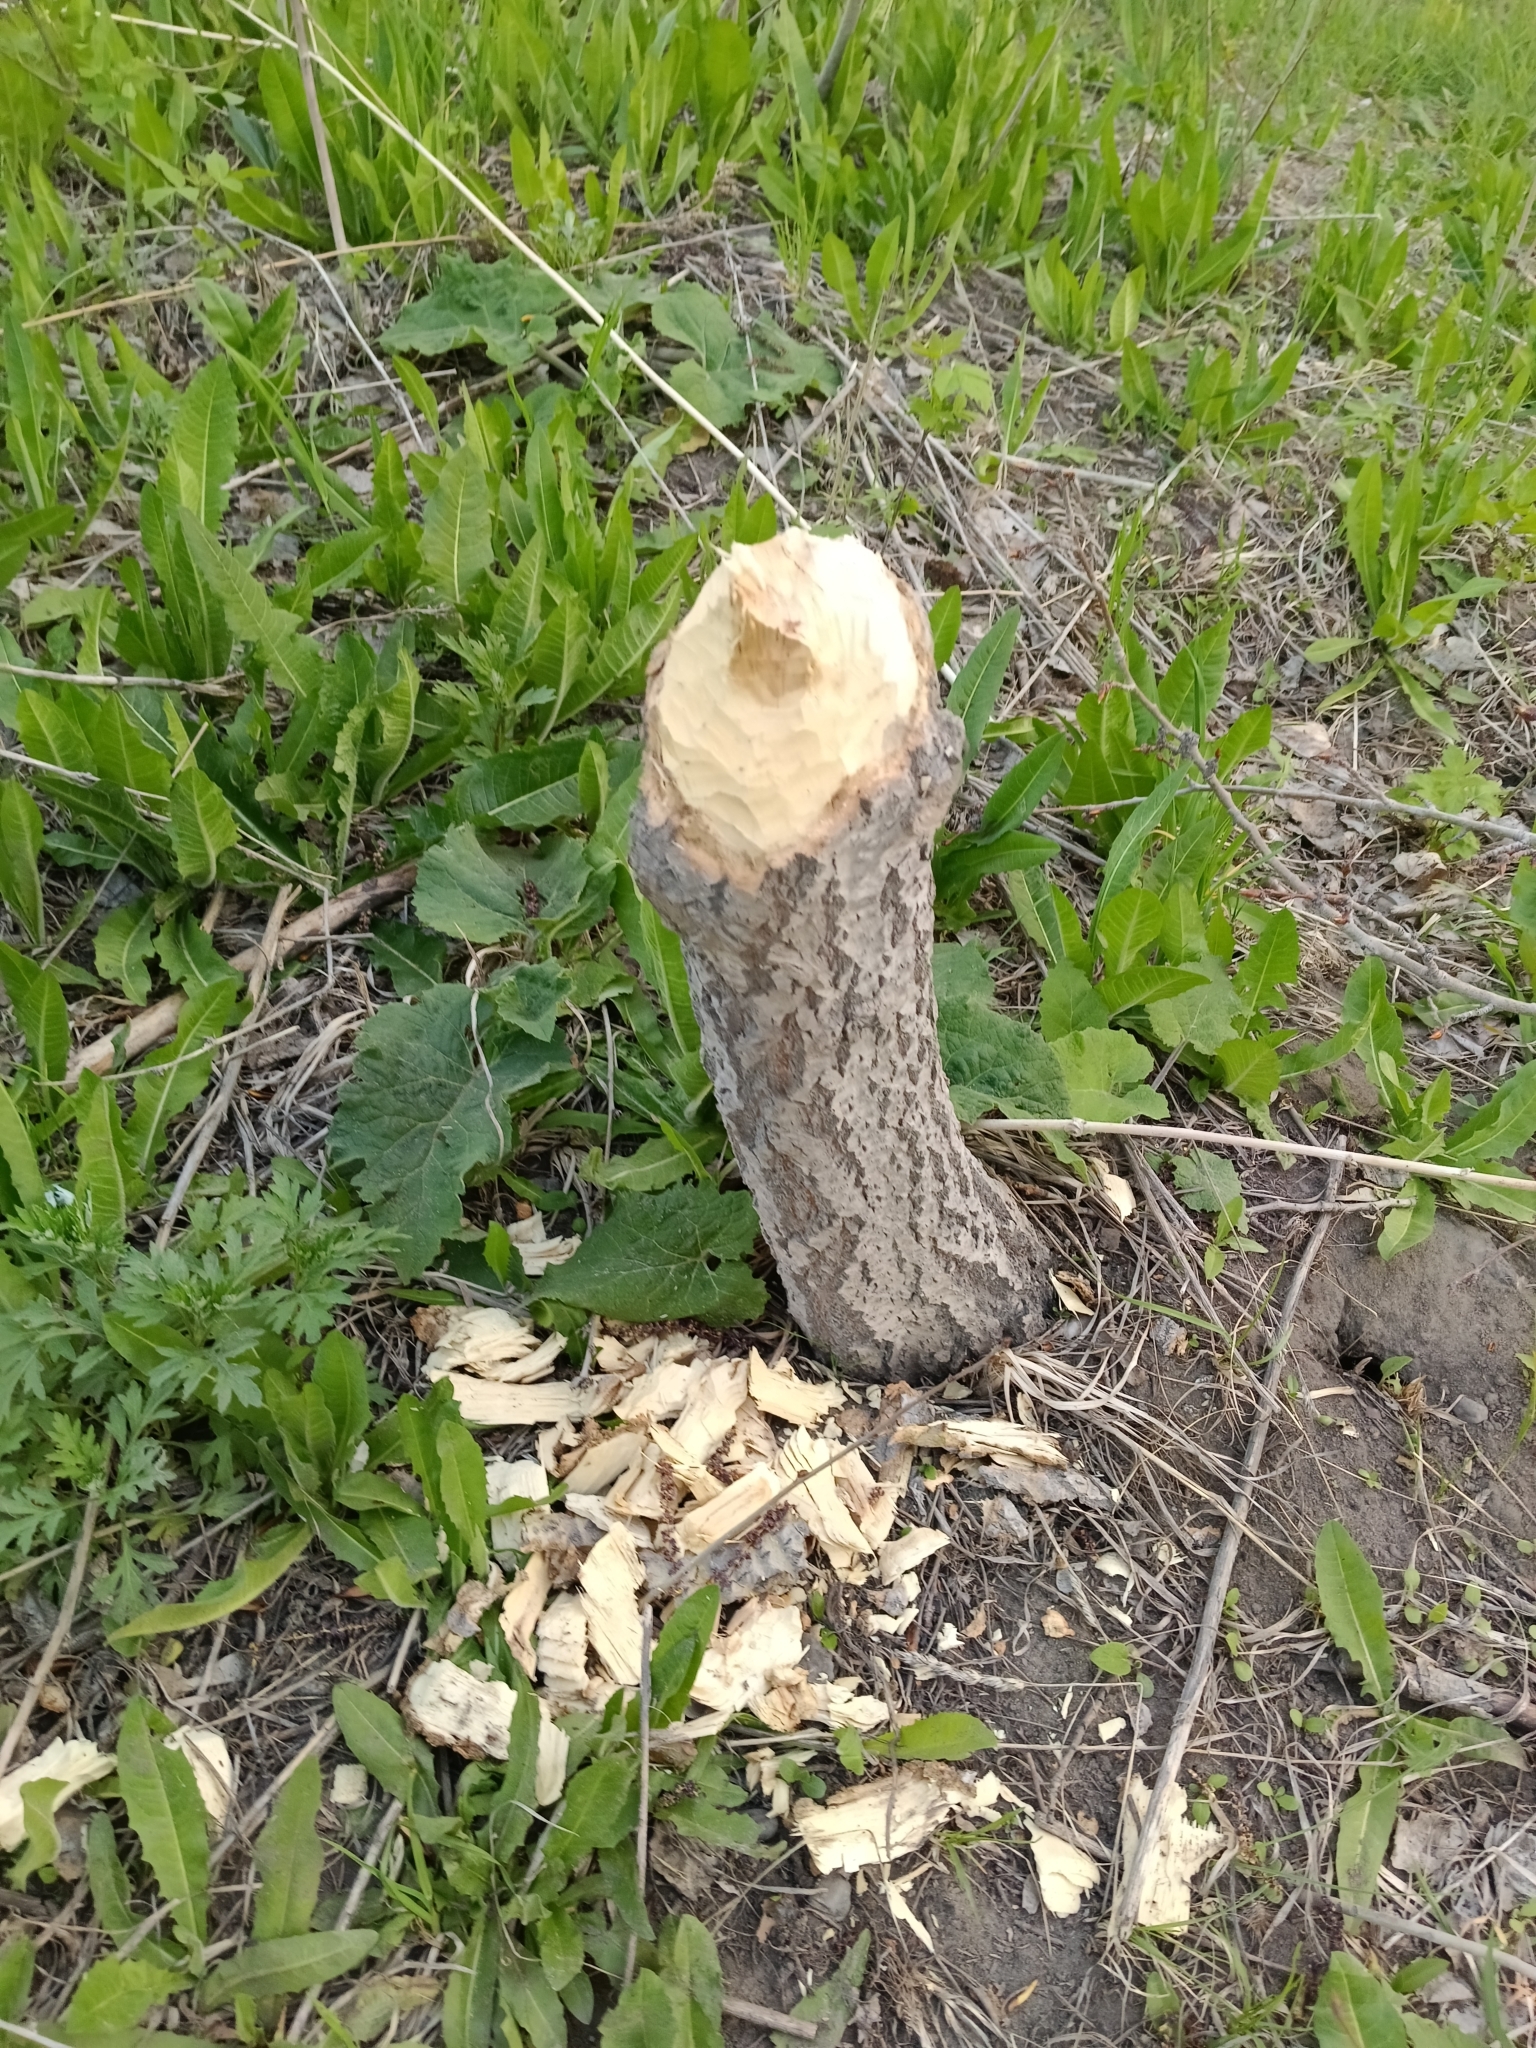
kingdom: Animalia
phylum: Chordata
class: Mammalia
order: Rodentia
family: Castoridae
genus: Castor
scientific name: Castor fiber
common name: Eurasian beaver
